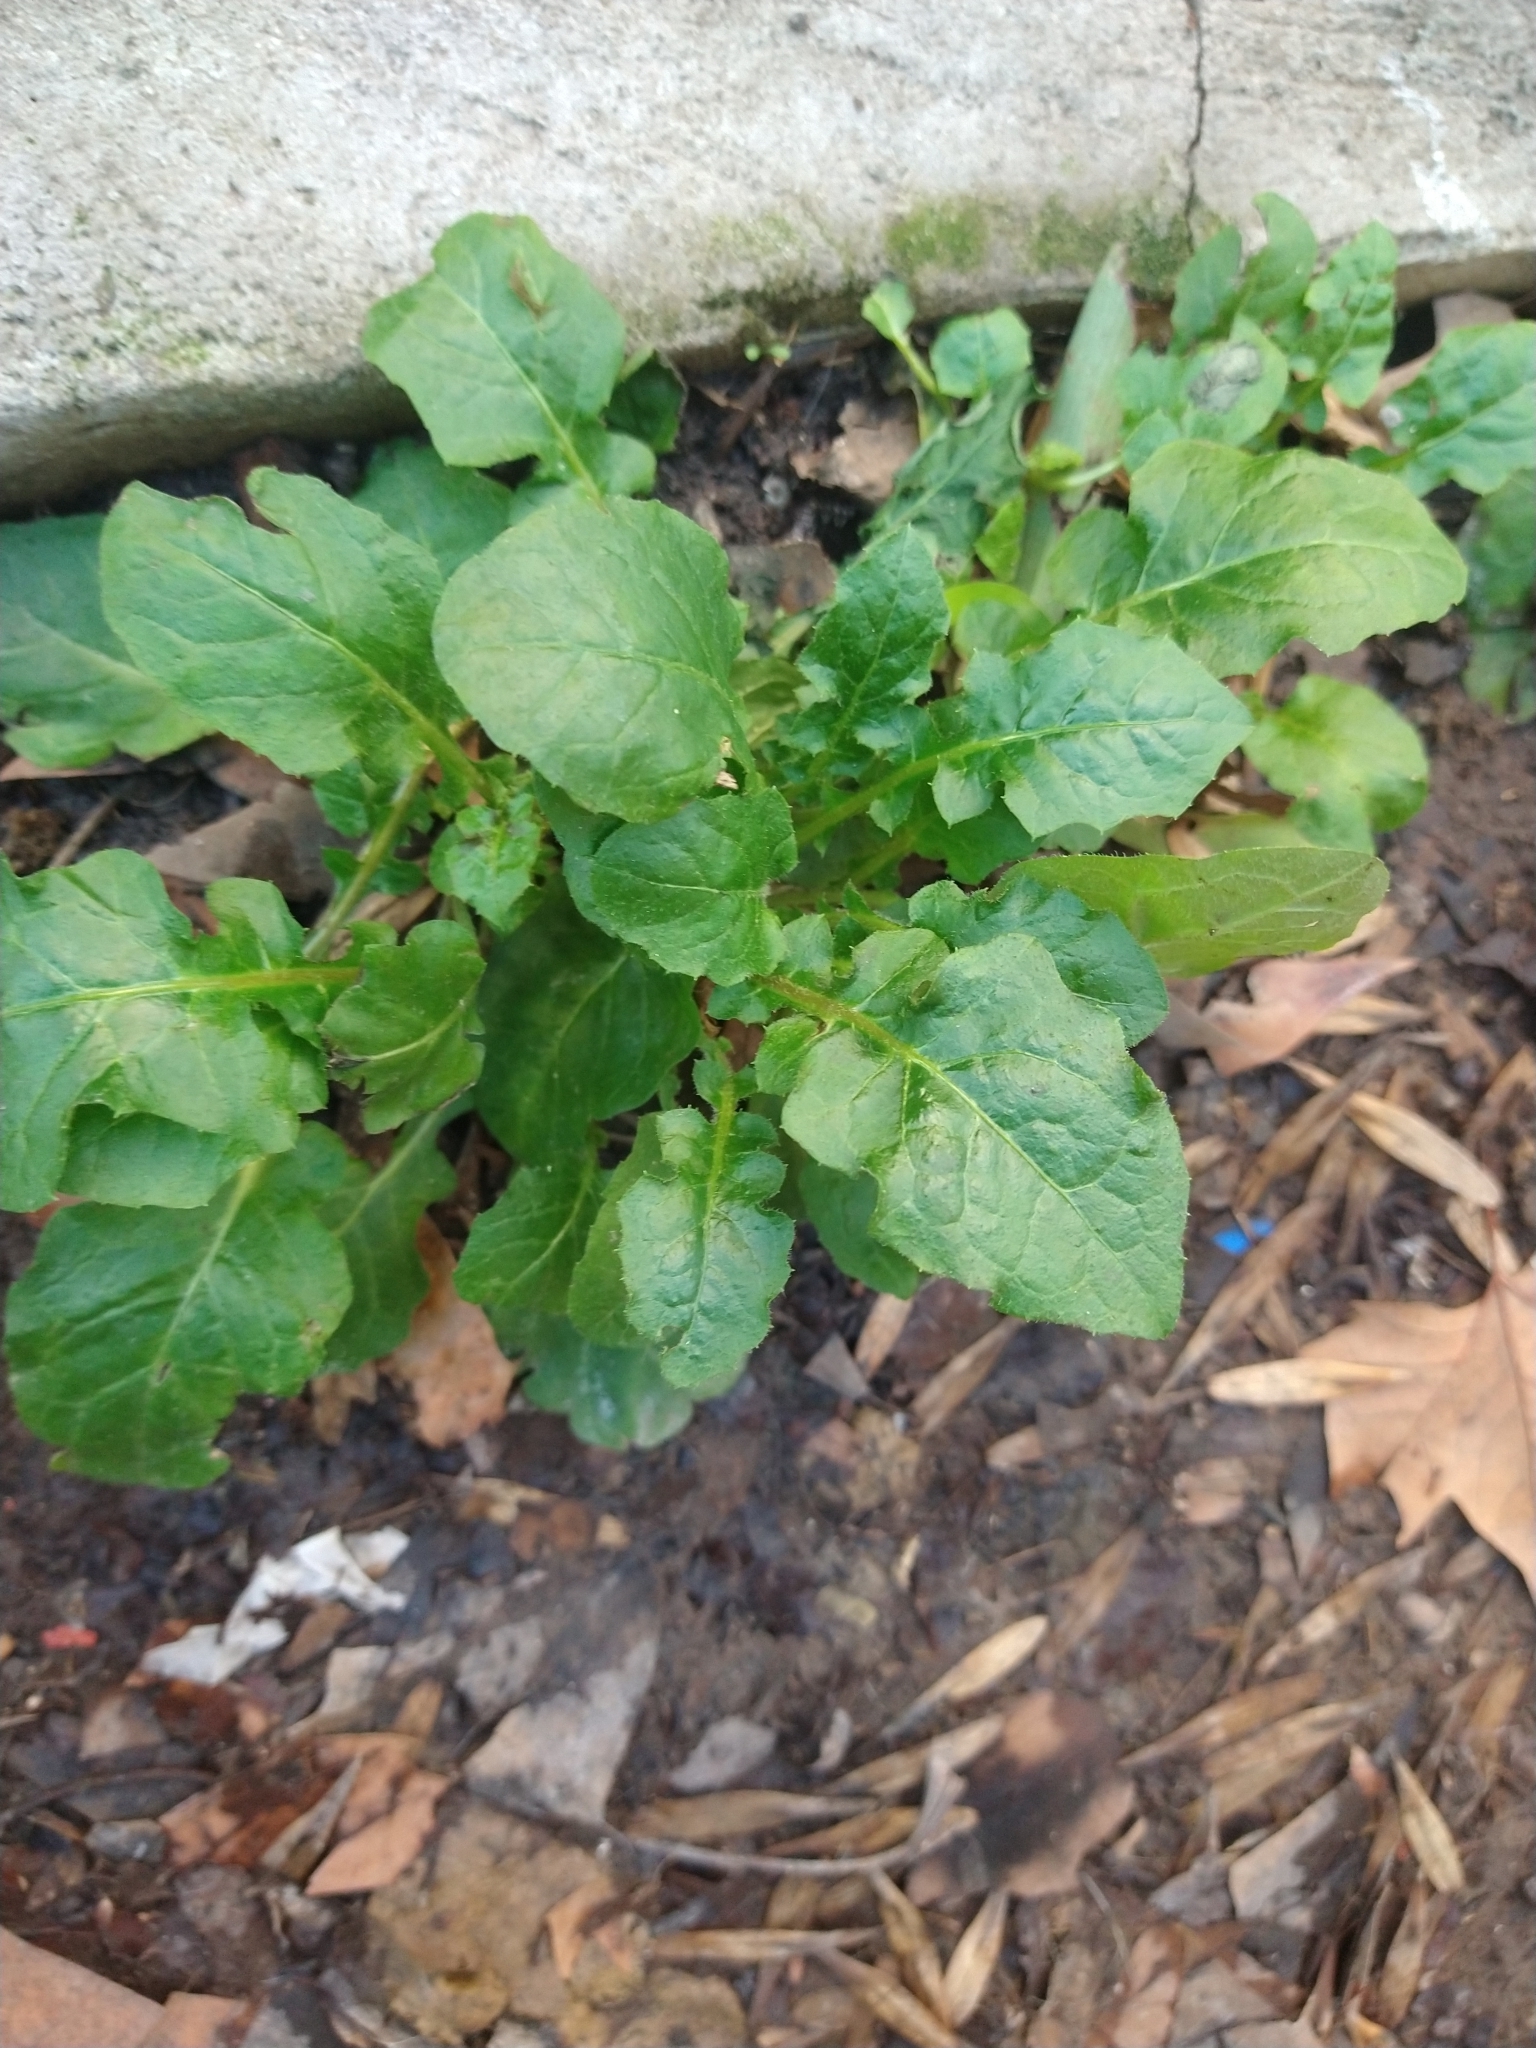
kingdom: Plantae
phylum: Tracheophyta
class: Magnoliopsida
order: Asterales
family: Asteraceae
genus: Youngia
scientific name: Youngia japonica
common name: Oriental false hawksbeard
